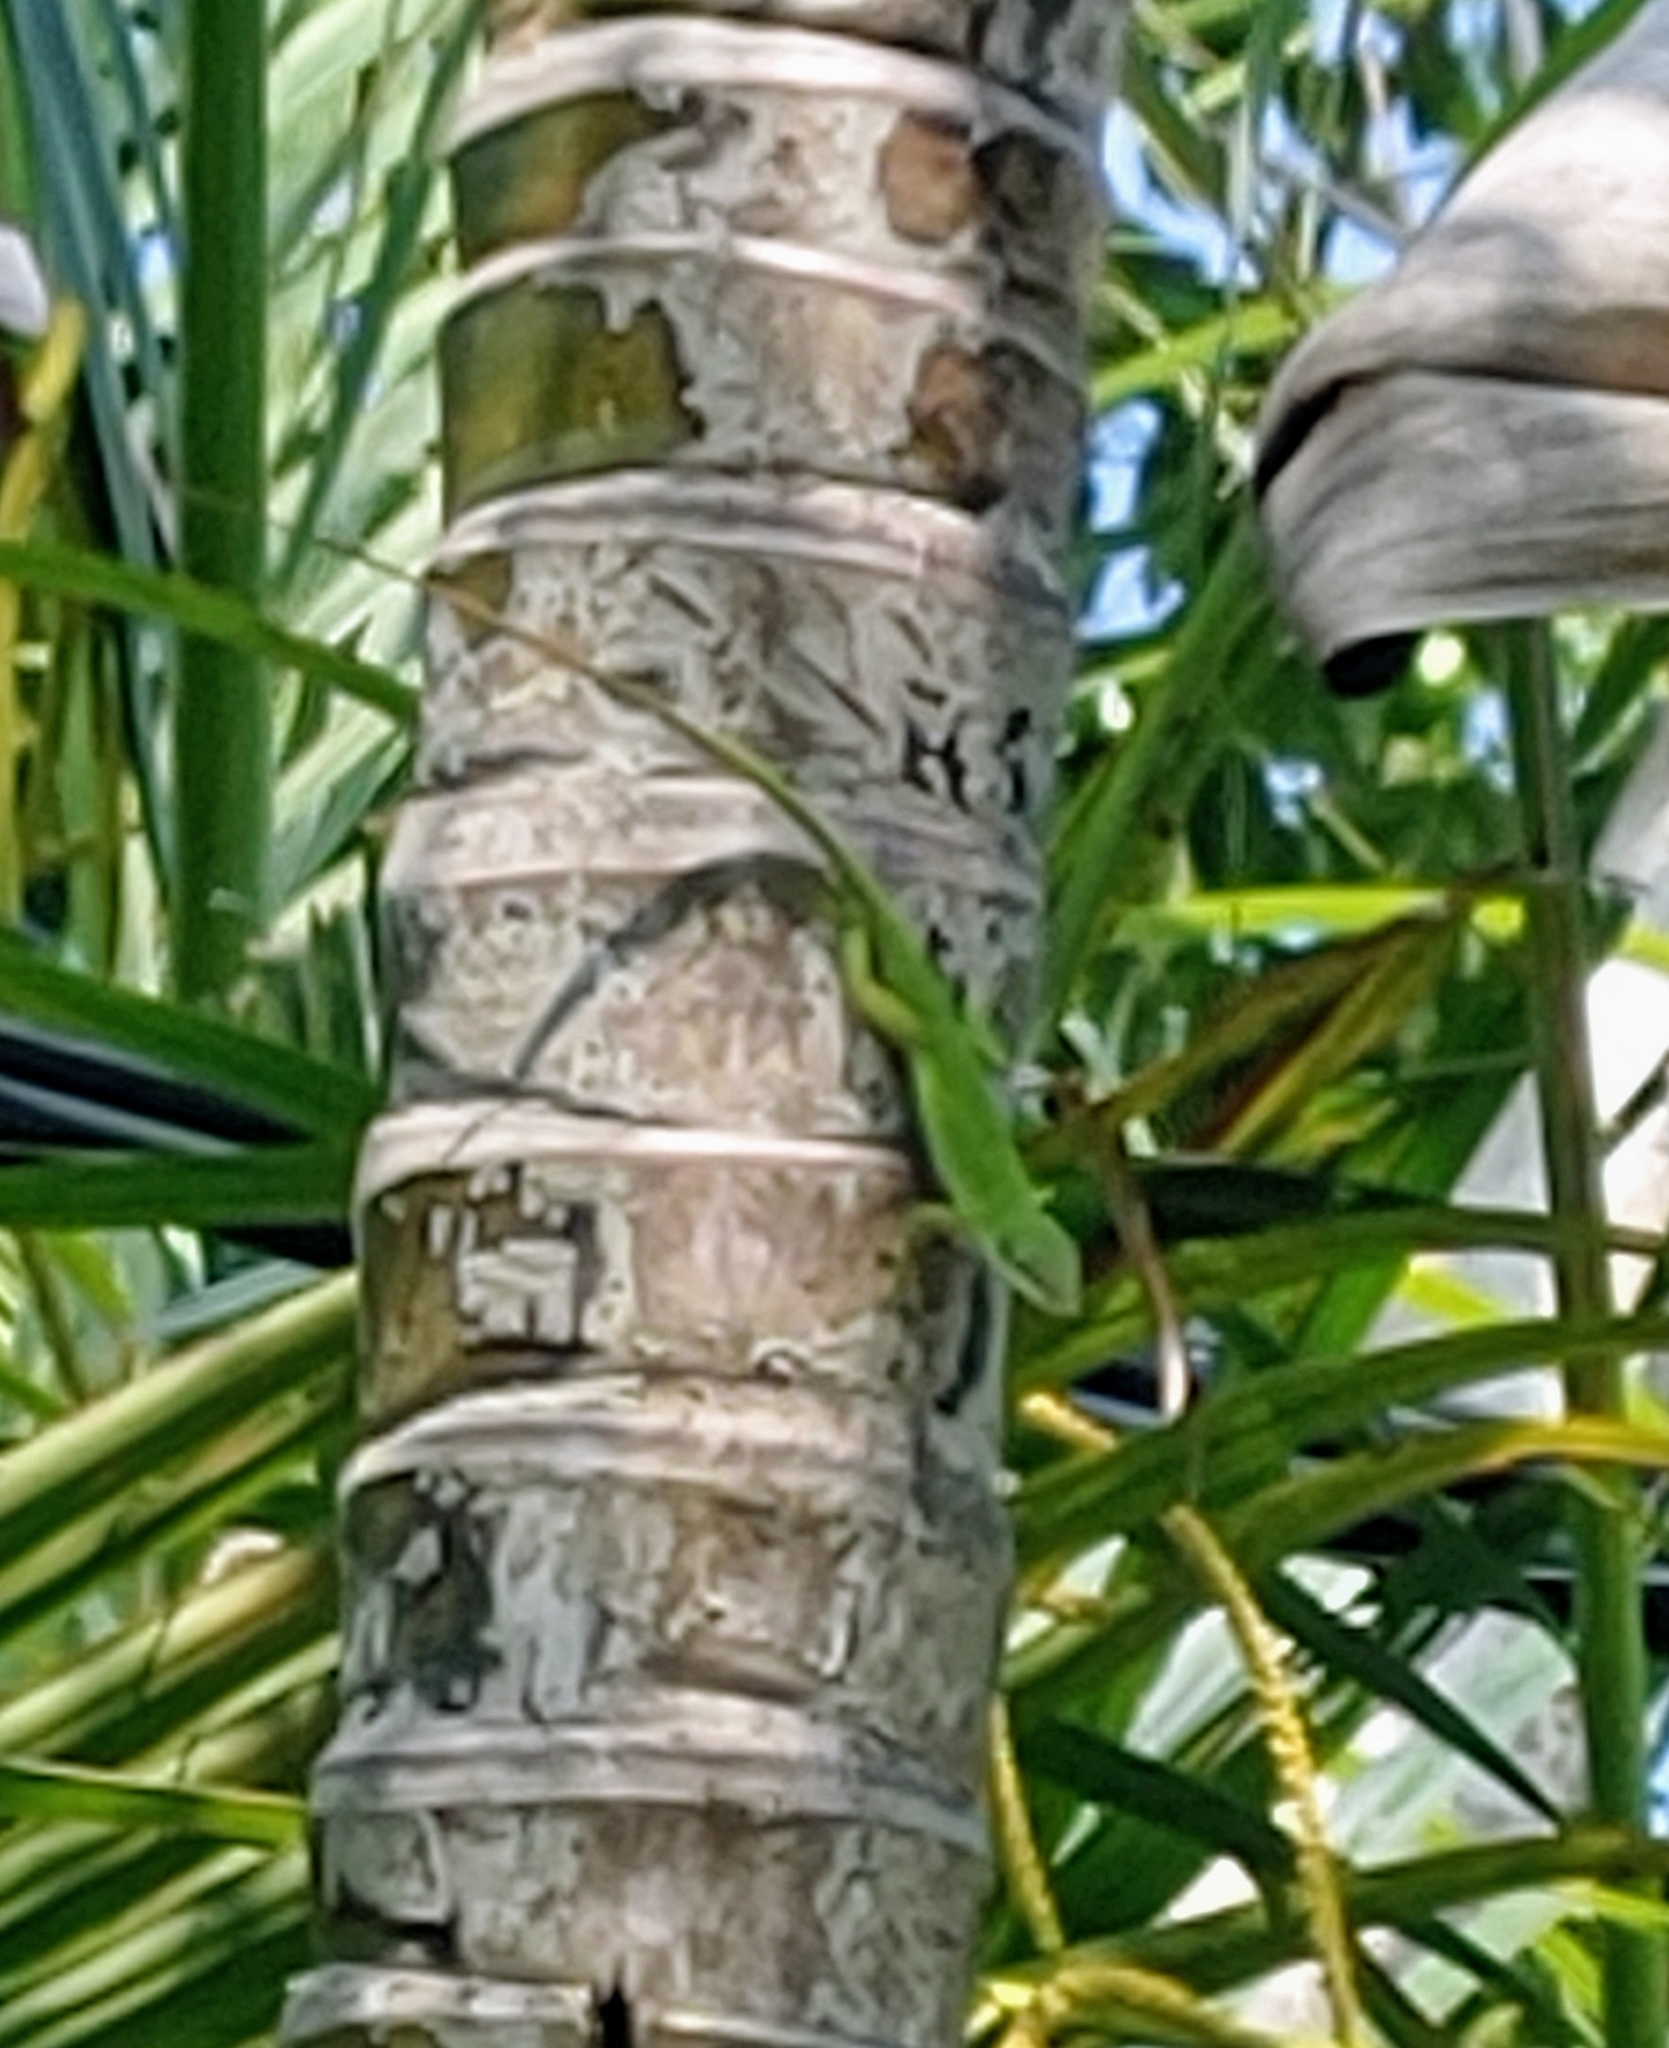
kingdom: Animalia
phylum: Chordata
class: Squamata
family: Dactyloidae
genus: Anolis
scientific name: Anolis carolinensis
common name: Green anole
